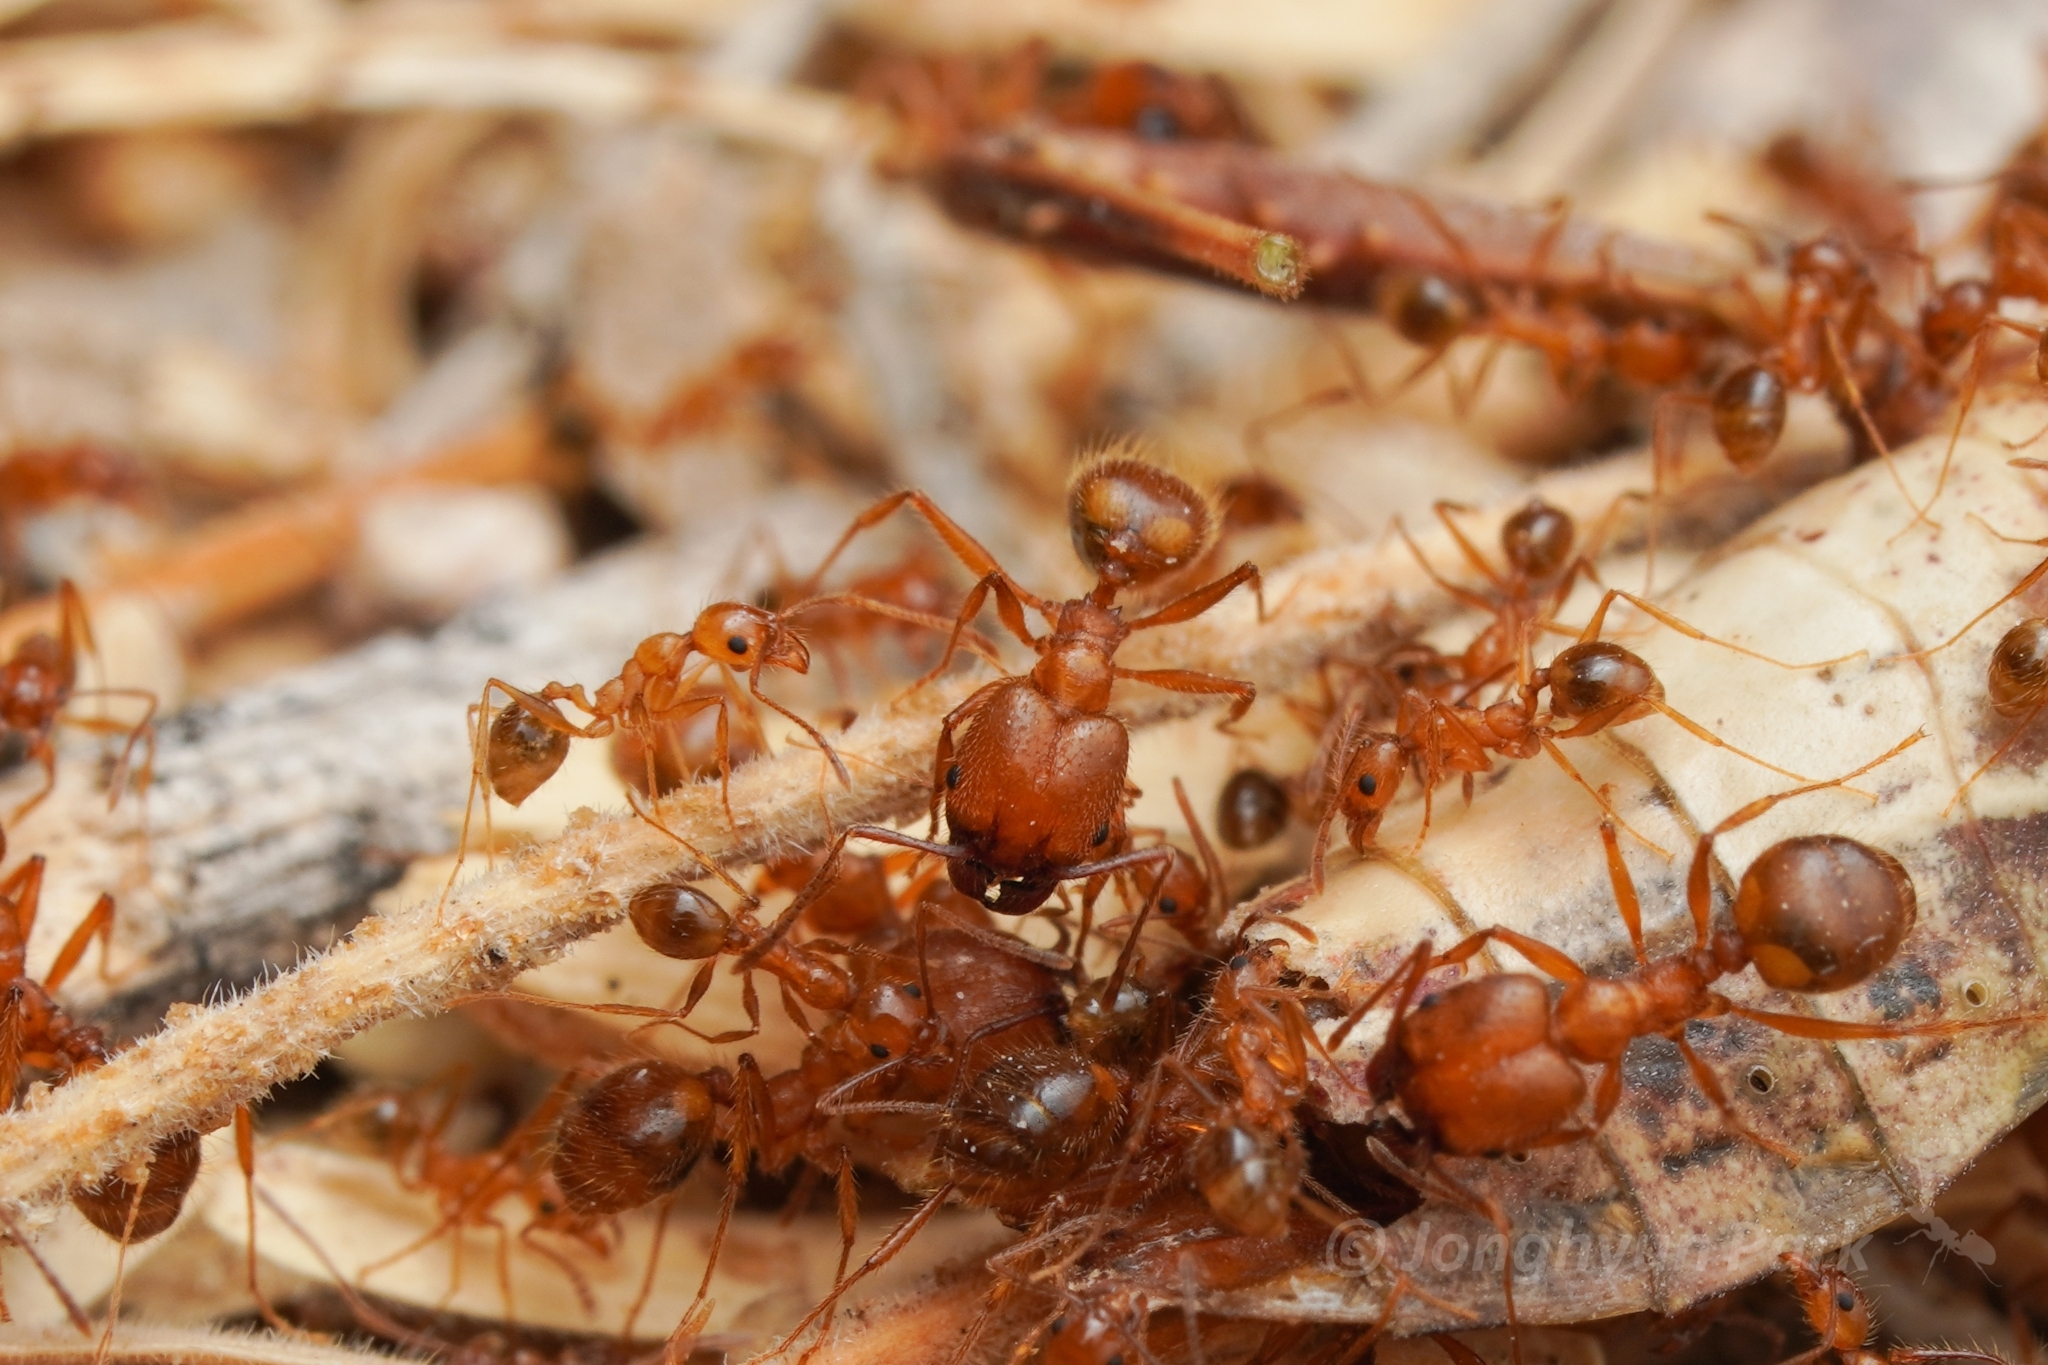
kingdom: Animalia
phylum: Arthropoda
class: Insecta
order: Hymenoptera
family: Formicidae
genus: Pheidole
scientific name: Pheidole hyatti
